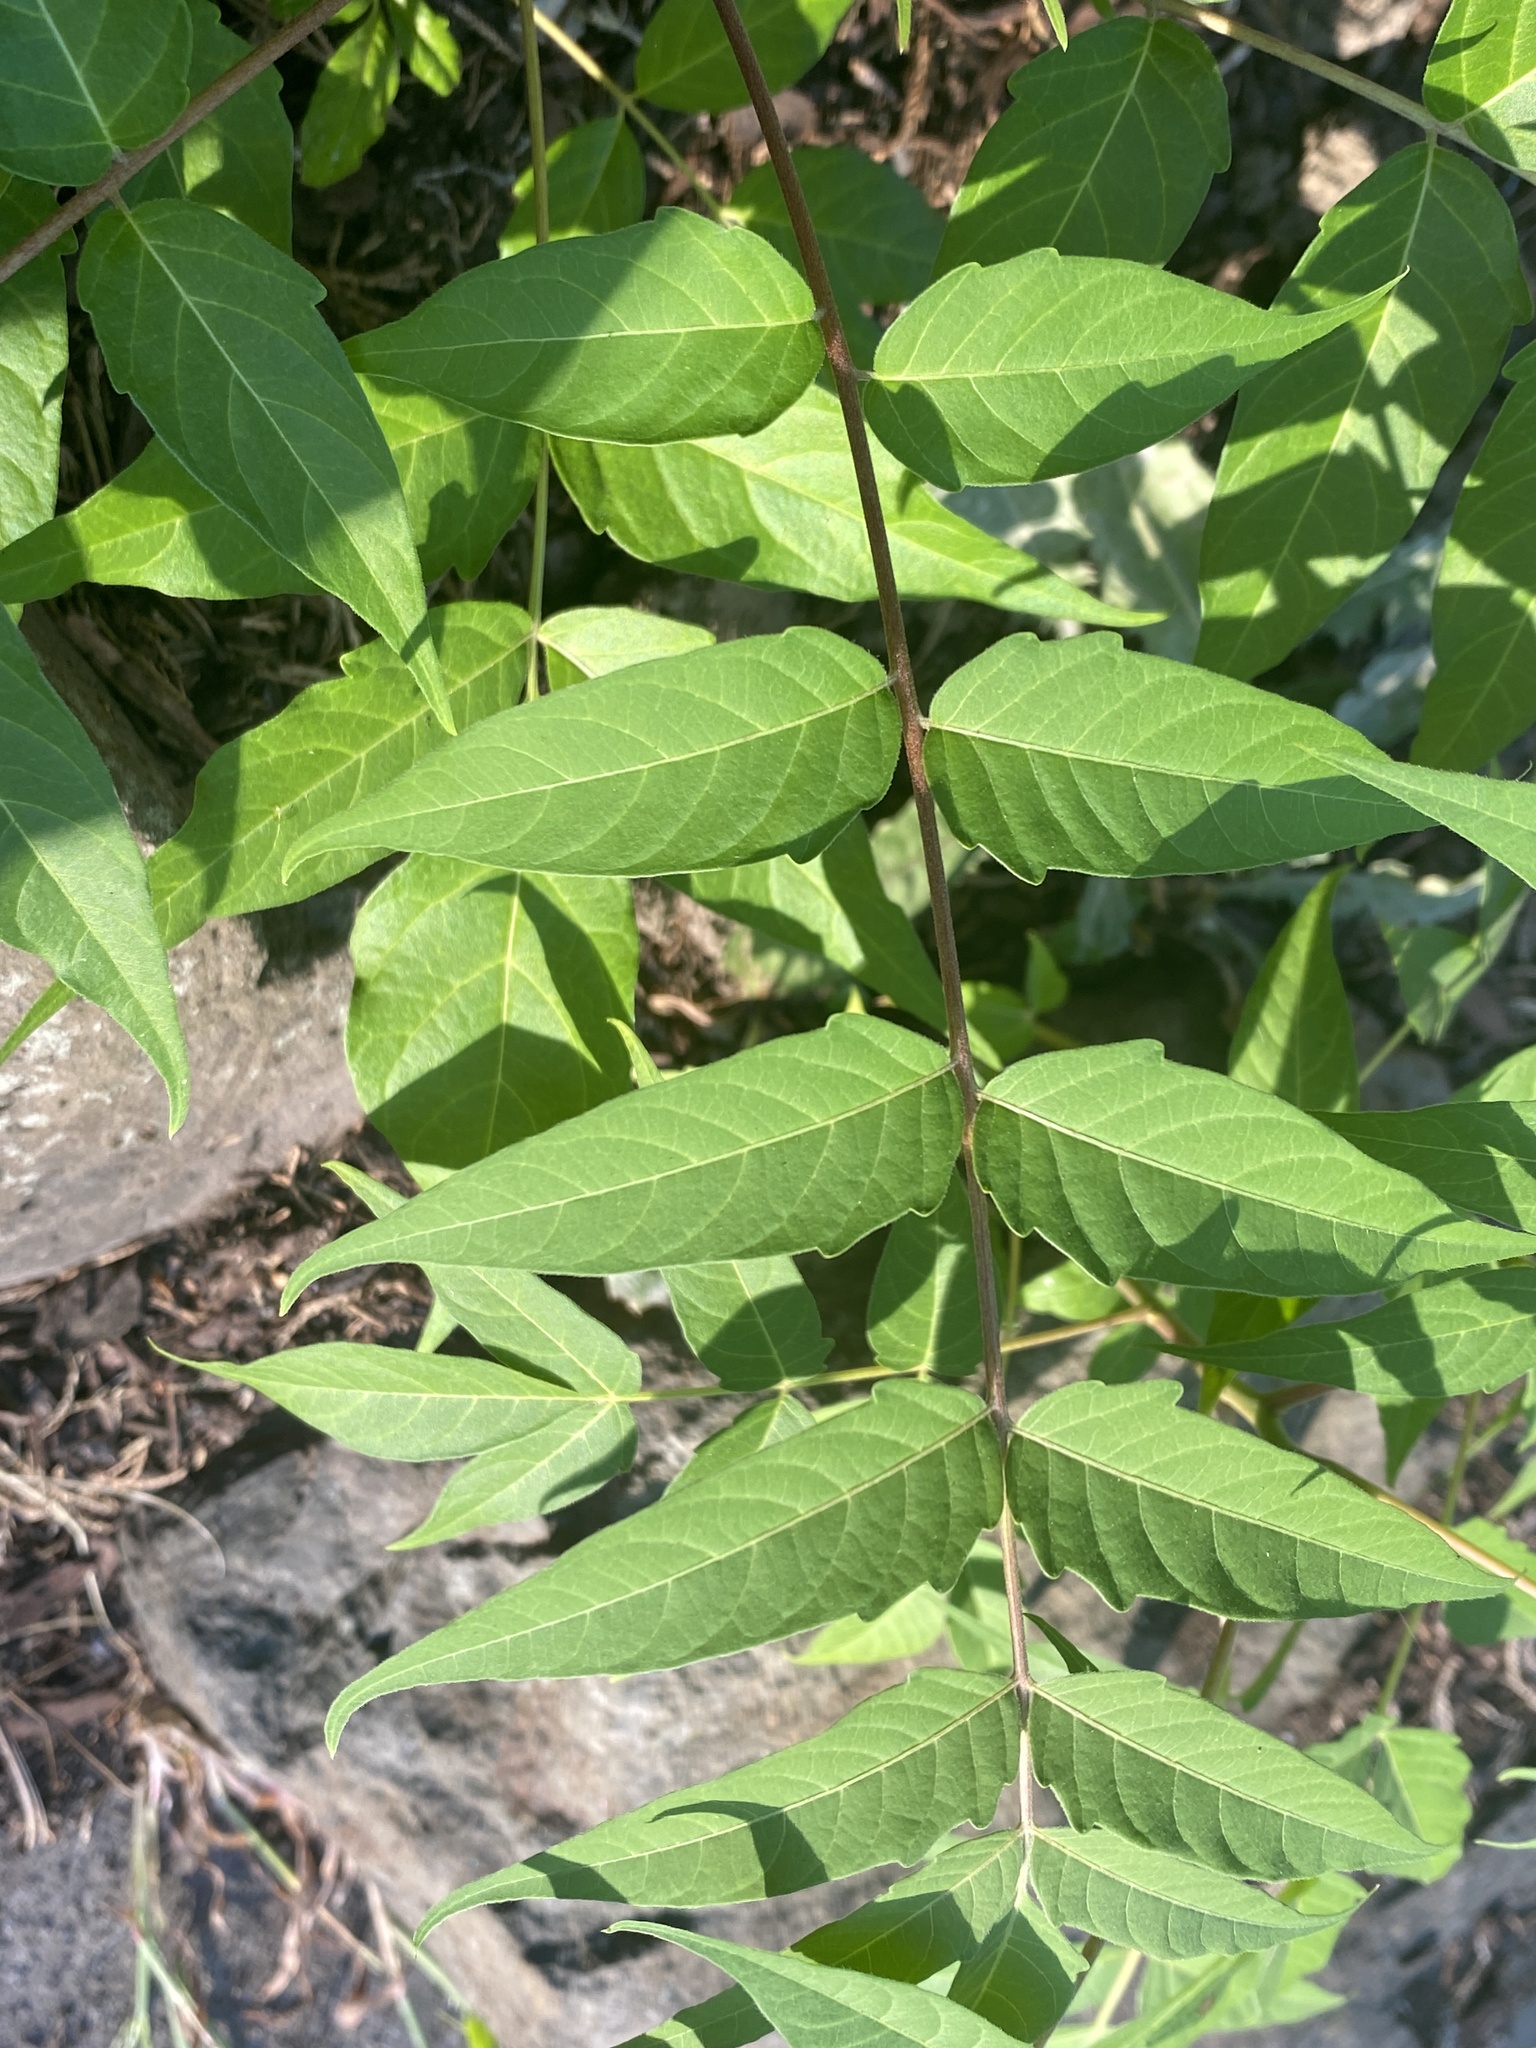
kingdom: Plantae
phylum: Tracheophyta
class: Magnoliopsida
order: Sapindales
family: Simaroubaceae
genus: Ailanthus
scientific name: Ailanthus altissima
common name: Tree-of-heaven
